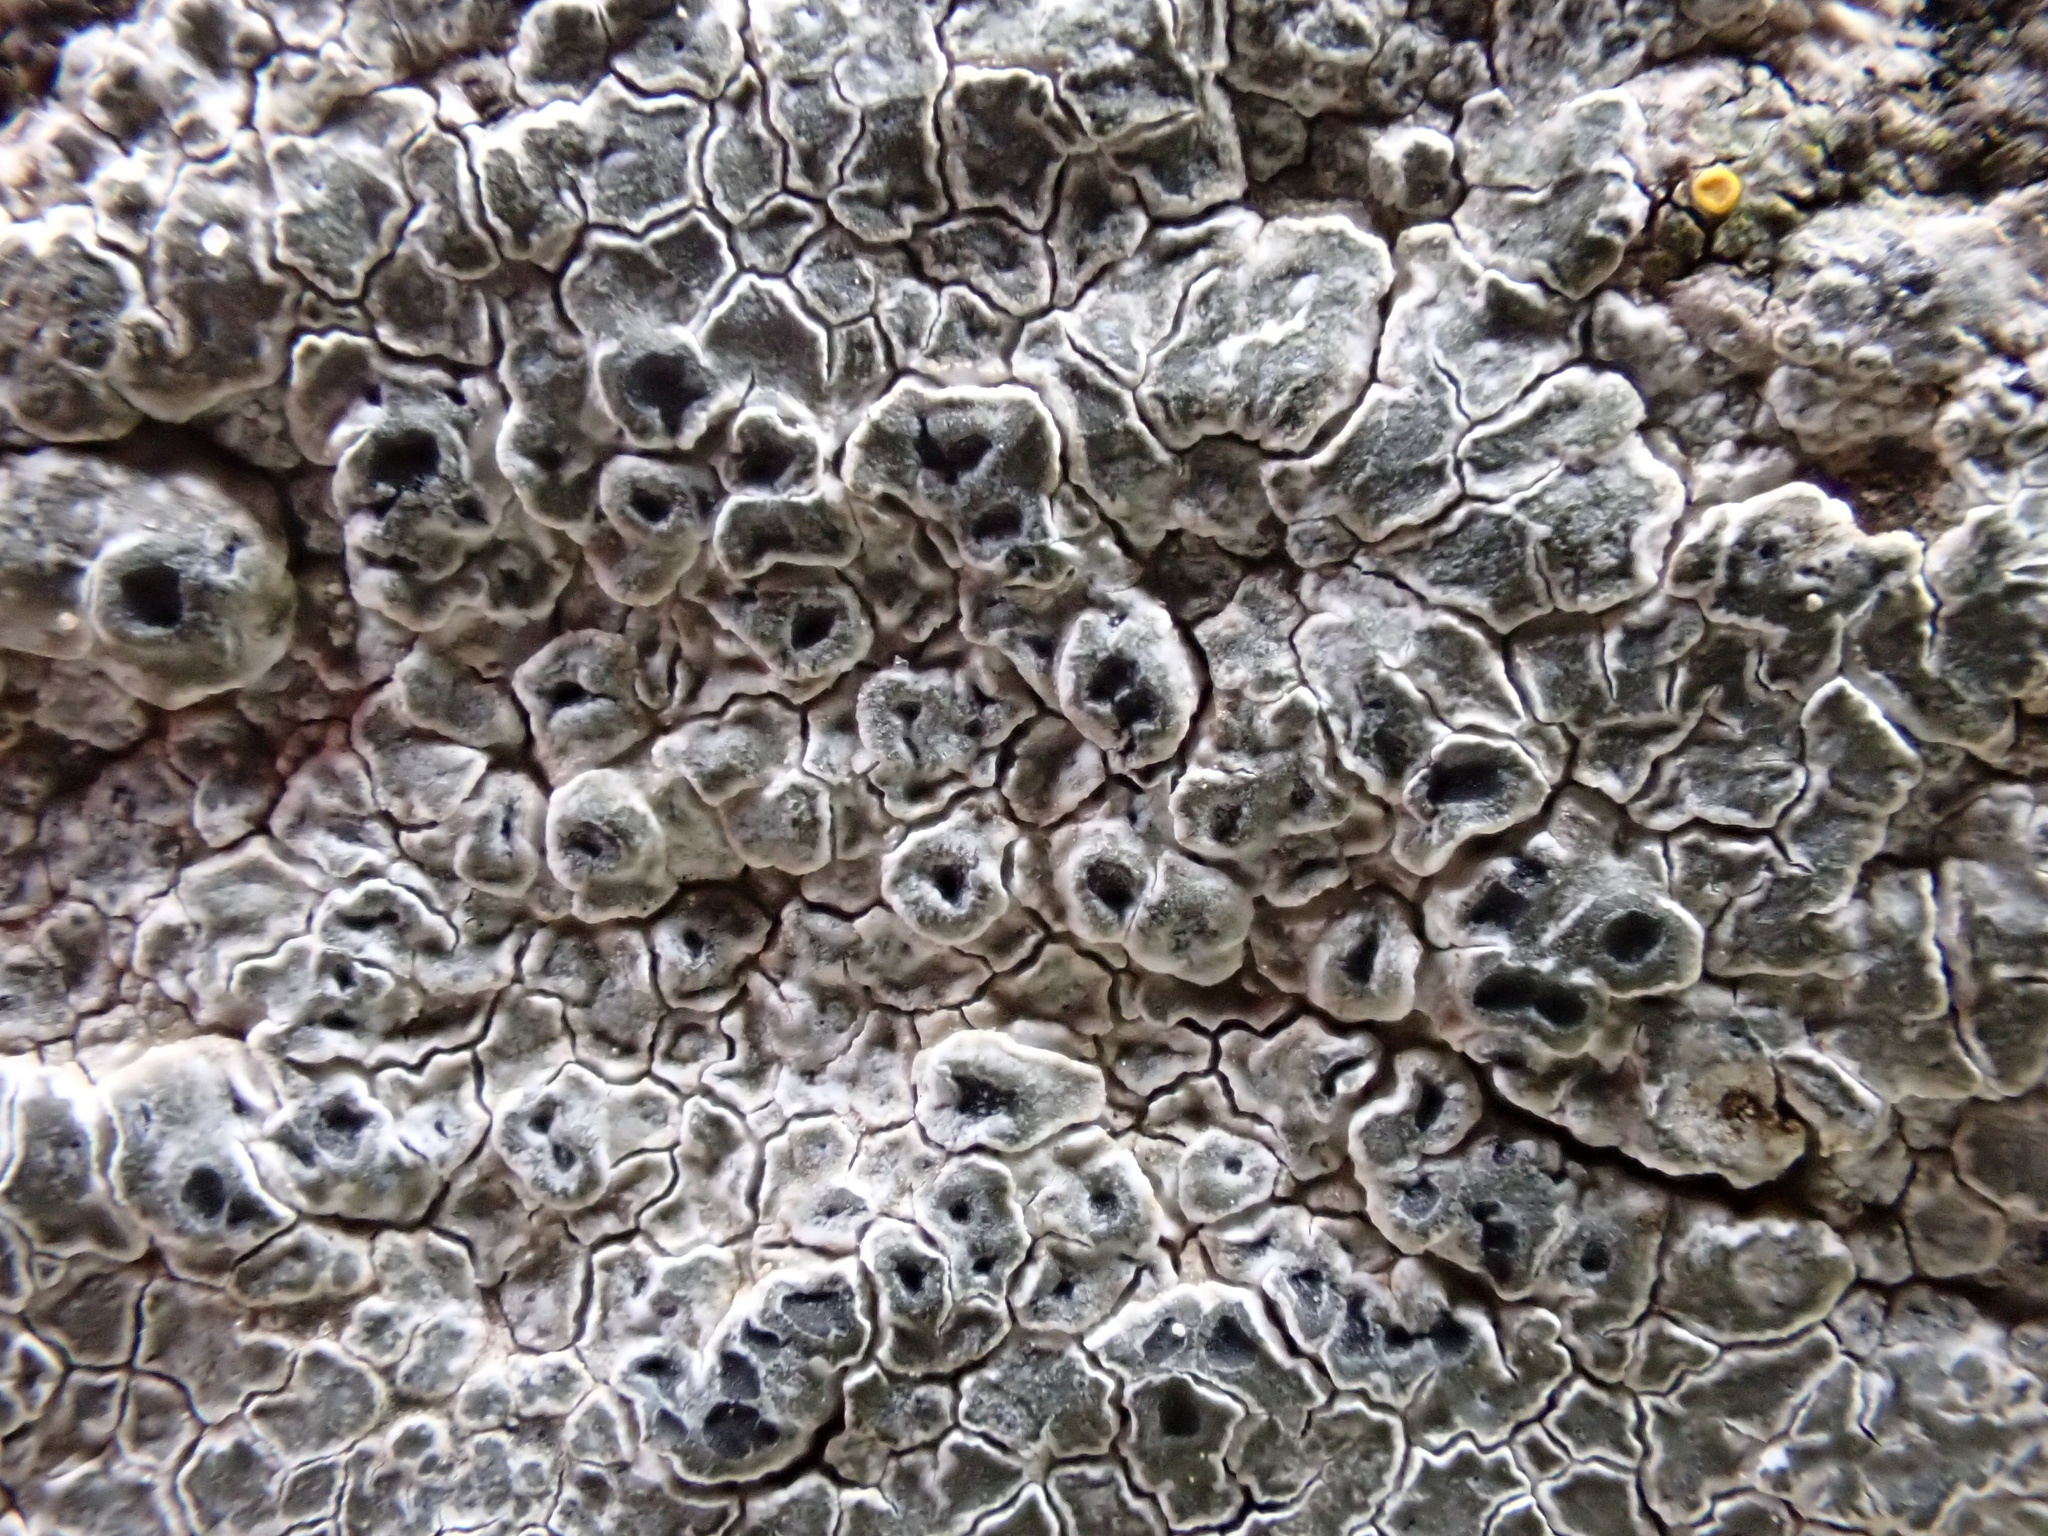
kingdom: Fungi
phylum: Ascomycota
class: Lecanoromycetes
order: Pertusariales
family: Megasporaceae
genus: Circinaria
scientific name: Circinaria contorta
